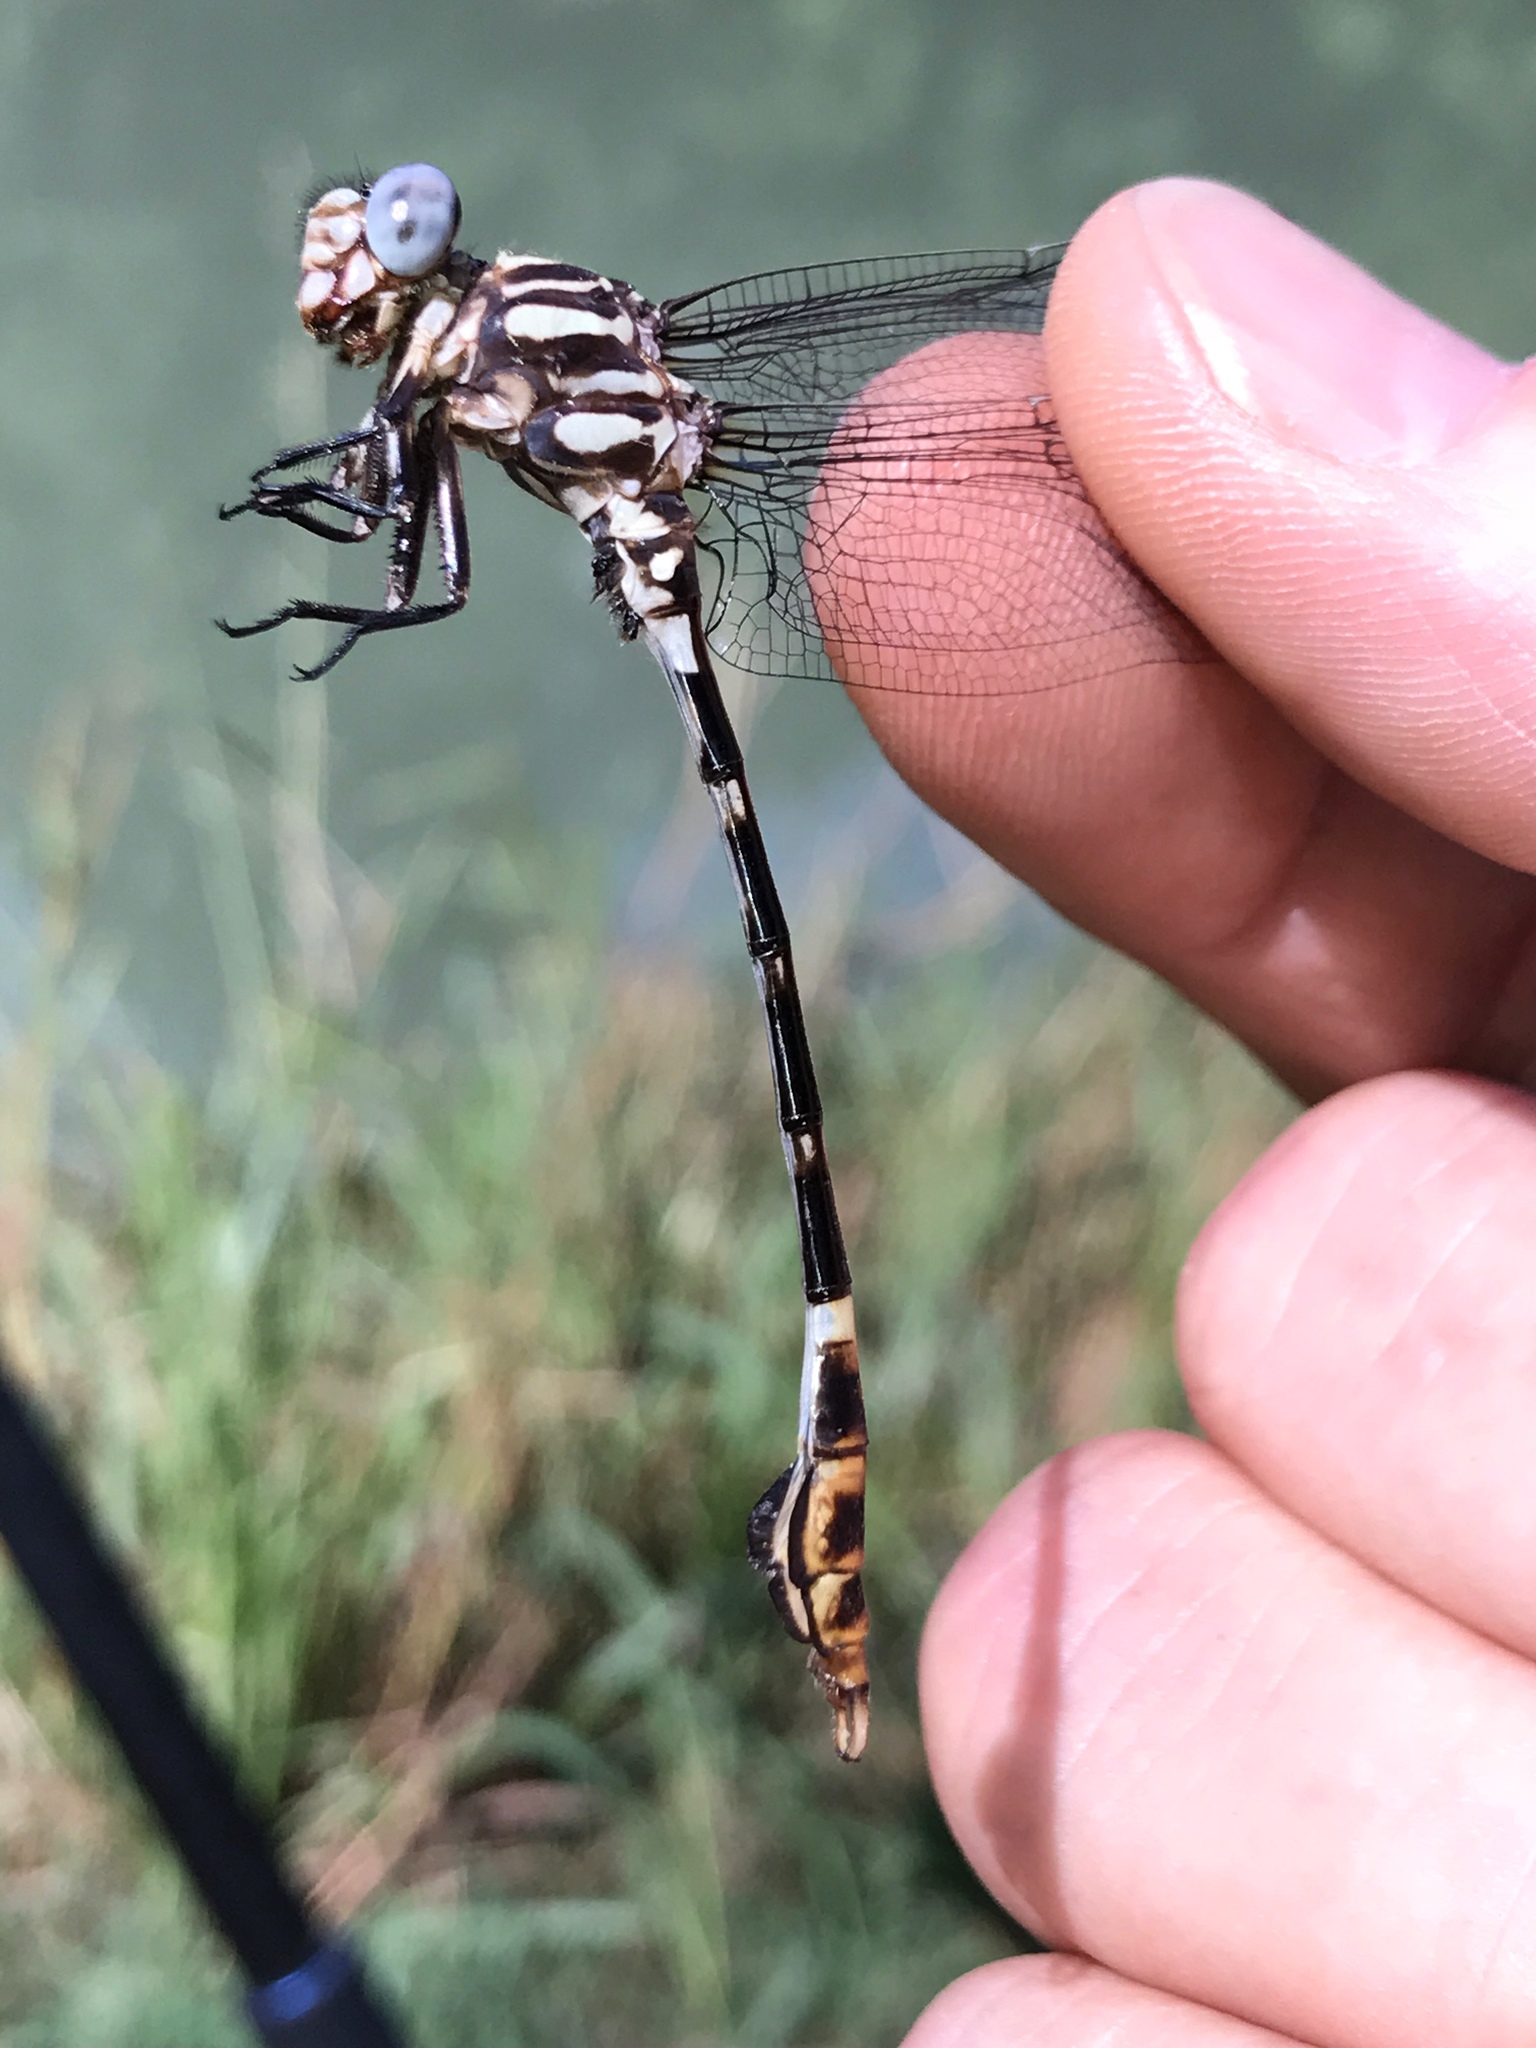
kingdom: Animalia
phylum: Arthropoda
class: Insecta
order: Odonata
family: Gomphidae
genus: Phyllogomphoides
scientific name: Phyllogomphoides albrighti
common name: Five-striped leaftail
